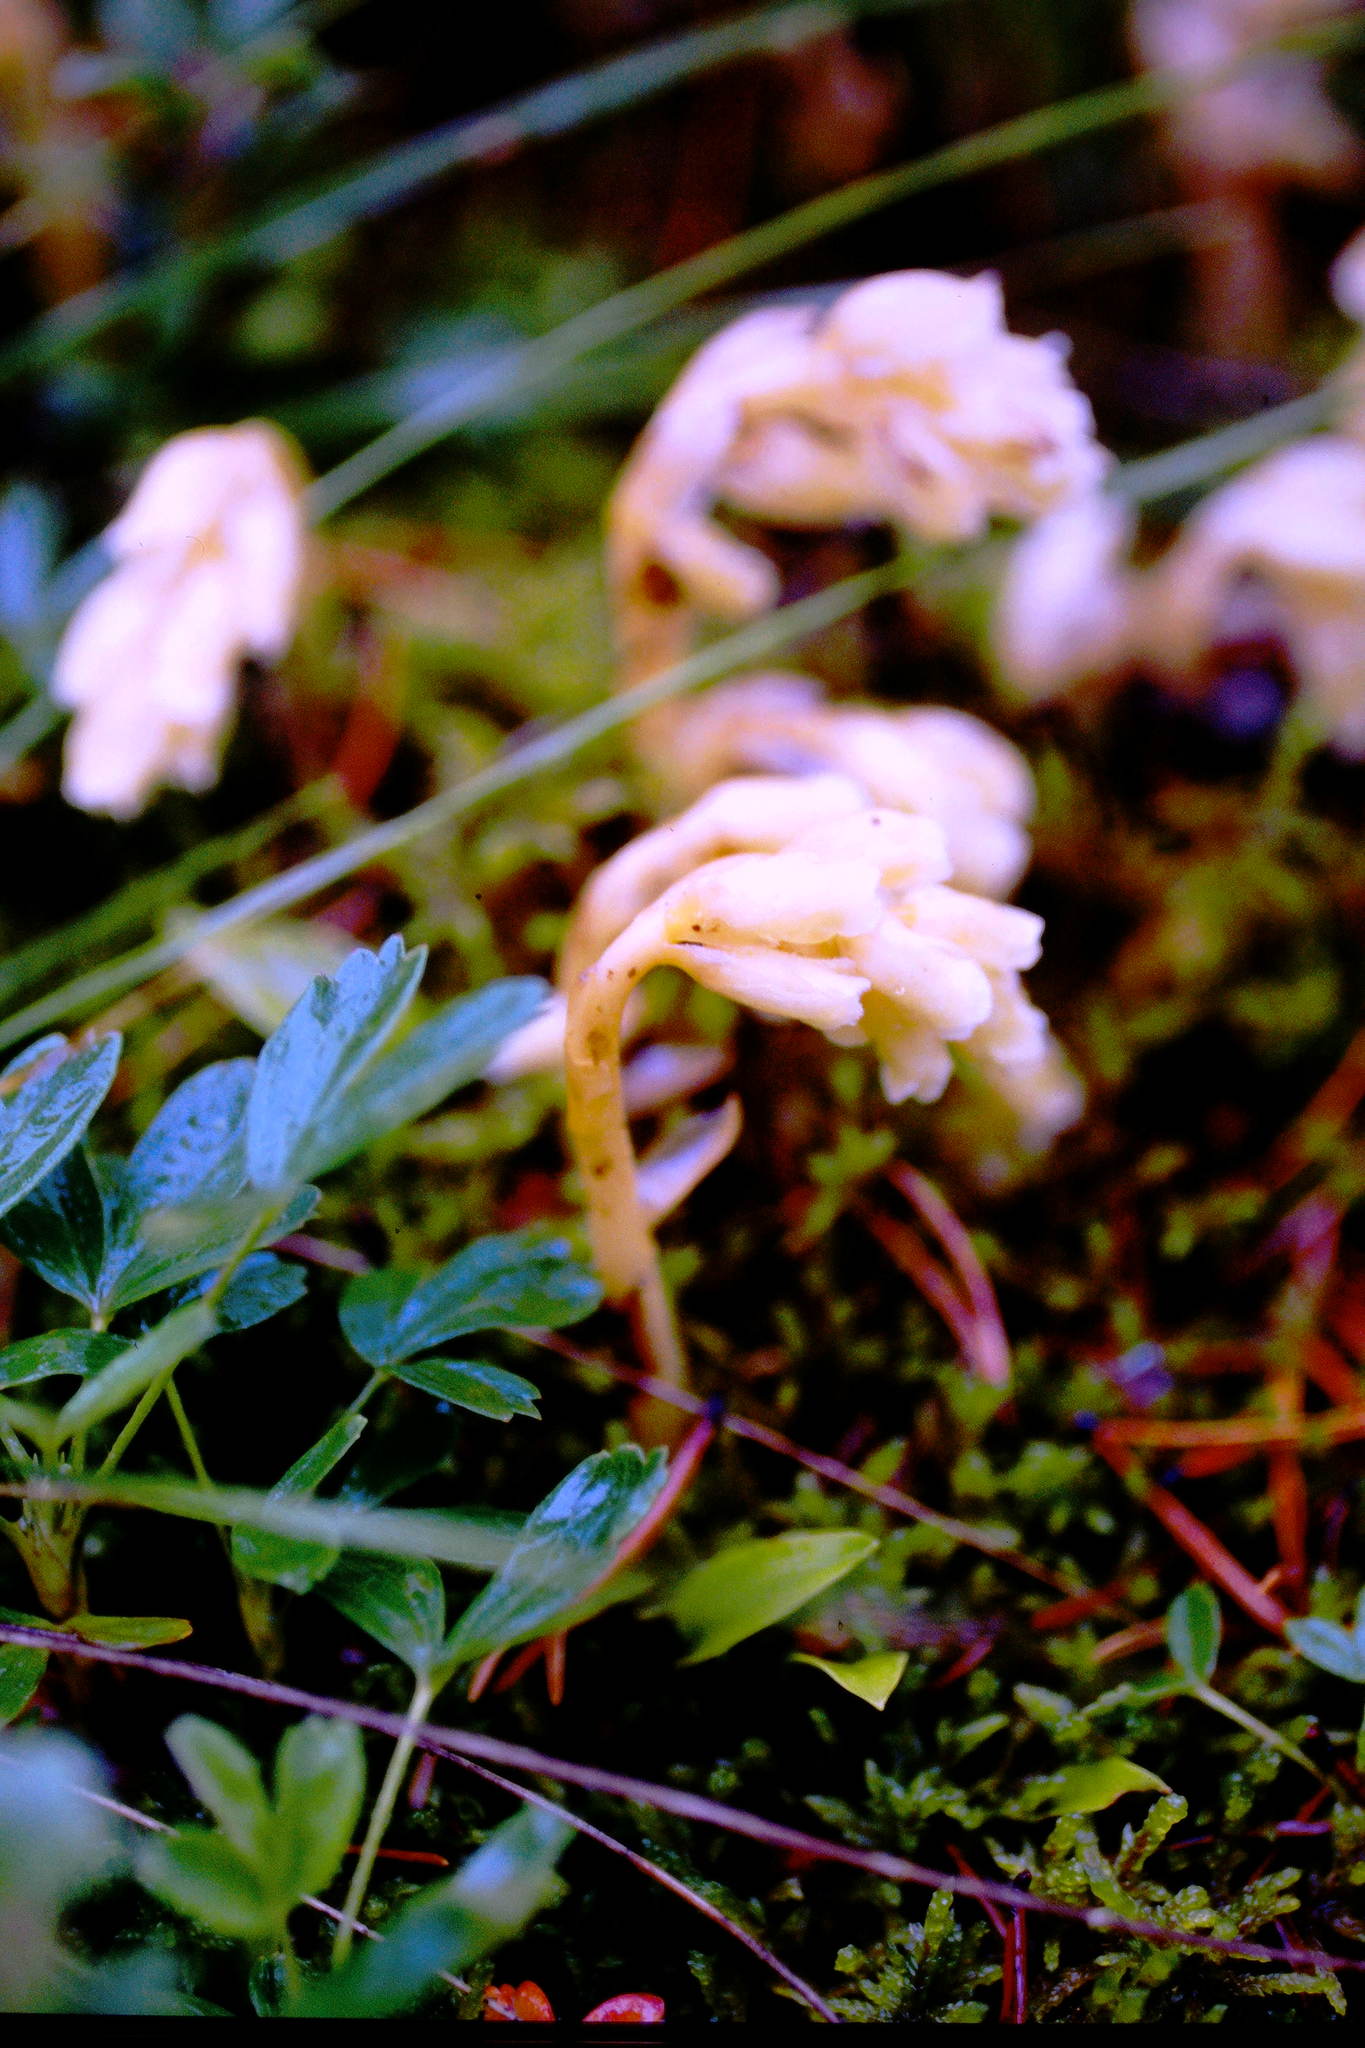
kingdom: Plantae
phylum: Tracheophyta
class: Magnoliopsida
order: Ericales
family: Ericaceae
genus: Hypopitys
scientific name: Hypopitys monotropa
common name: Yellow bird's-nest
